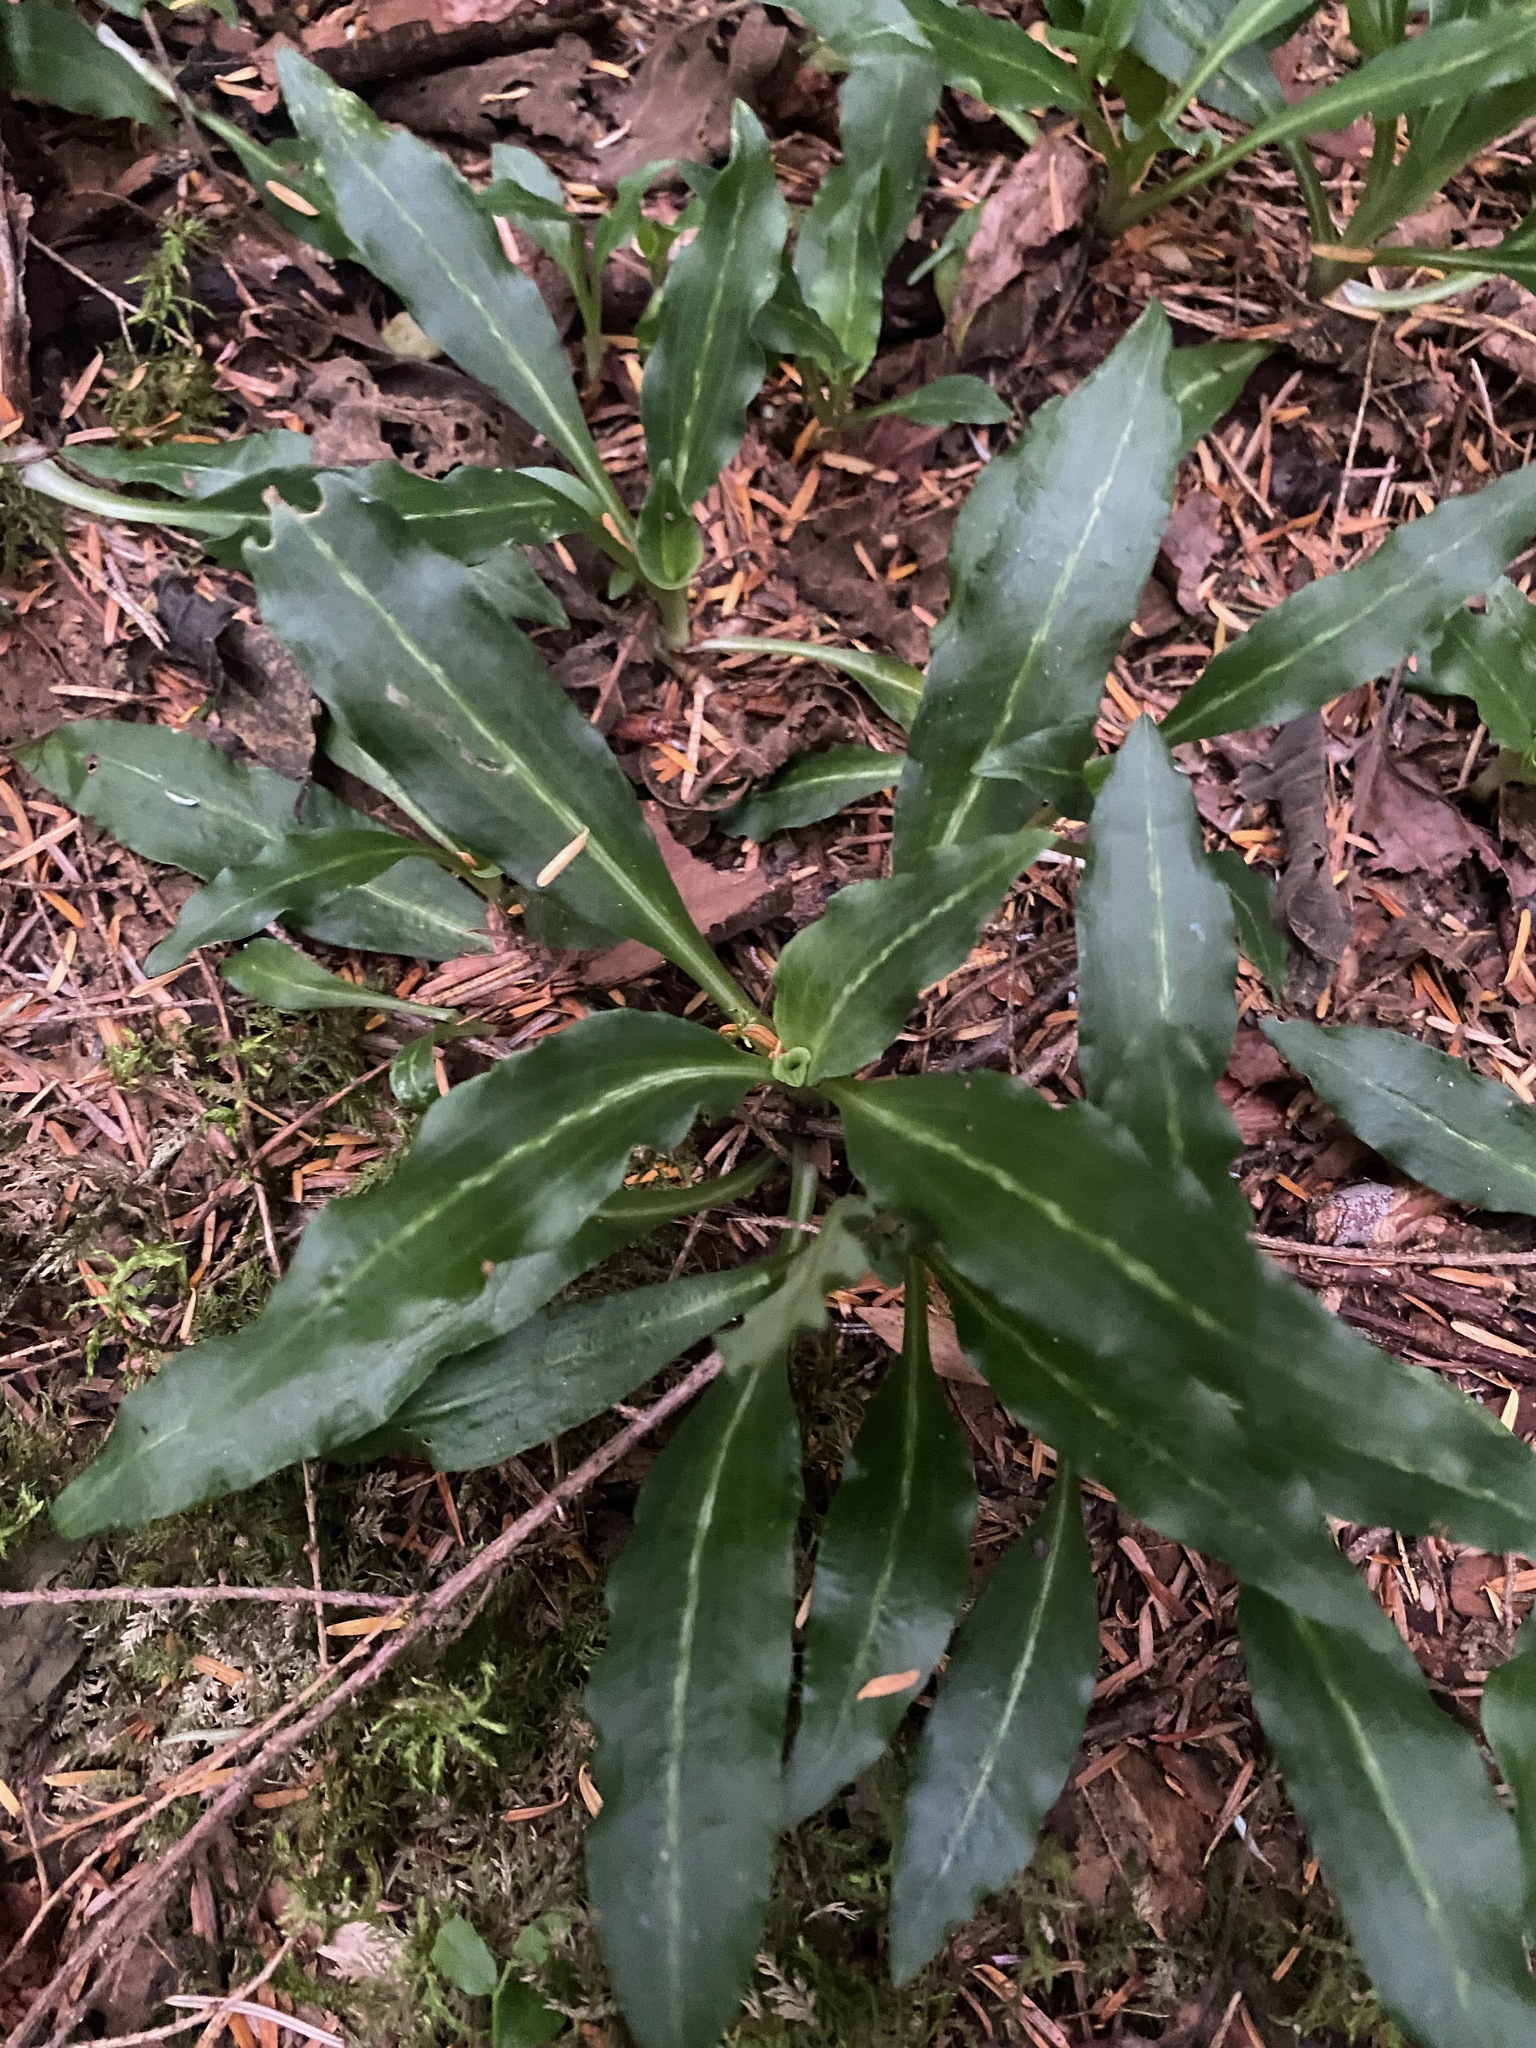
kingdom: Plantae
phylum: Tracheophyta
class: Liliopsida
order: Asparagales
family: Orchidaceae
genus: Goodyera
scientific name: Goodyera oblongifolia
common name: Giant rattlesnake-plantain
